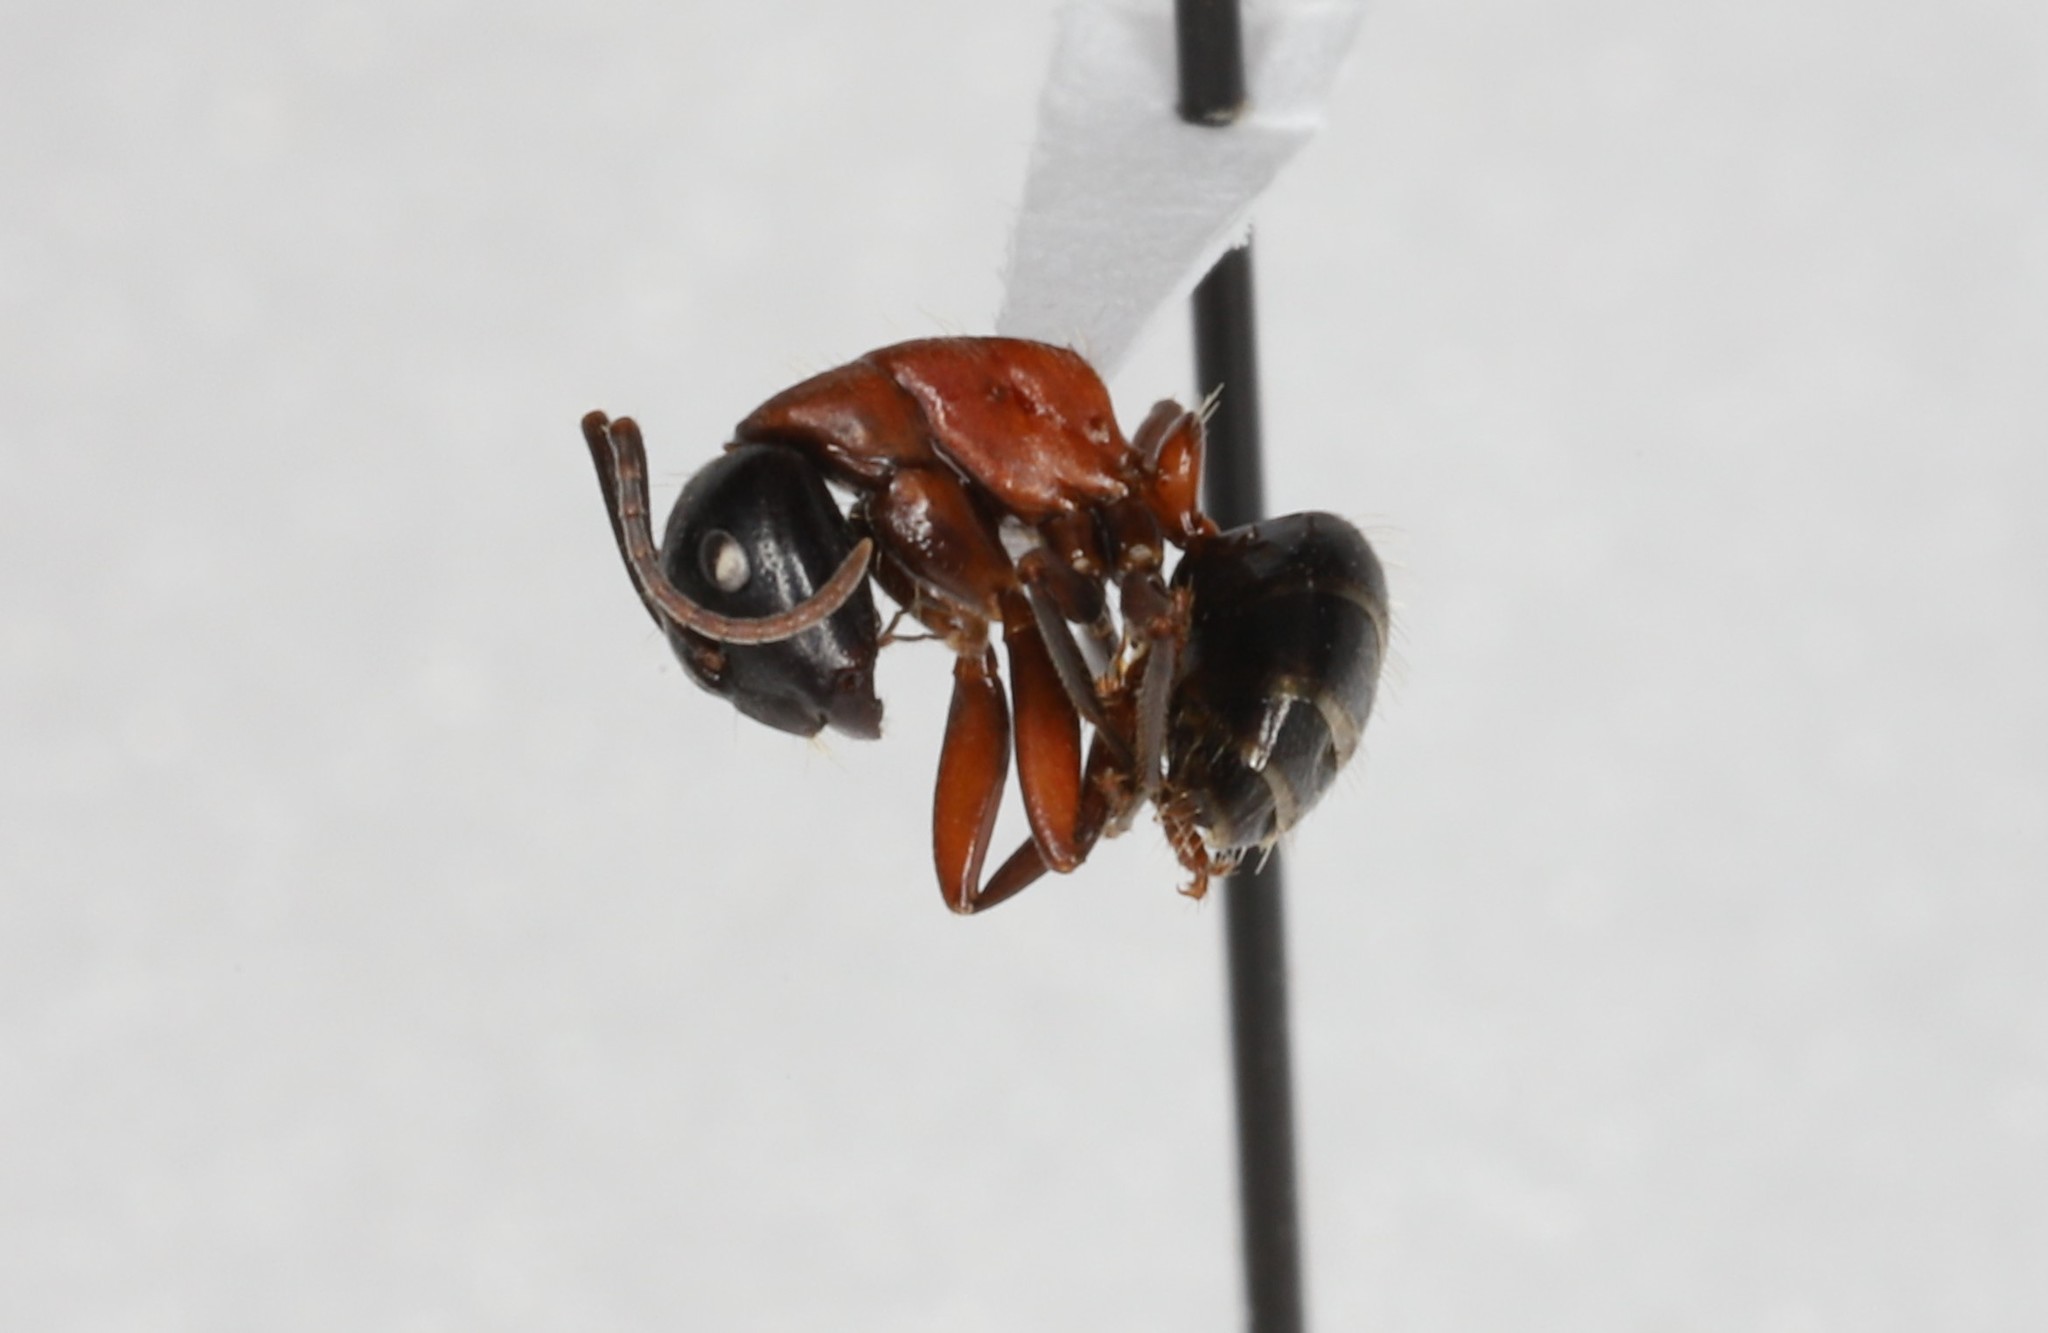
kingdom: Animalia
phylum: Arthropoda
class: Insecta
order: Hymenoptera
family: Formicidae
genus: Camponotus
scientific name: Camponotus novaeboracensis
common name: New york carpenter ant
